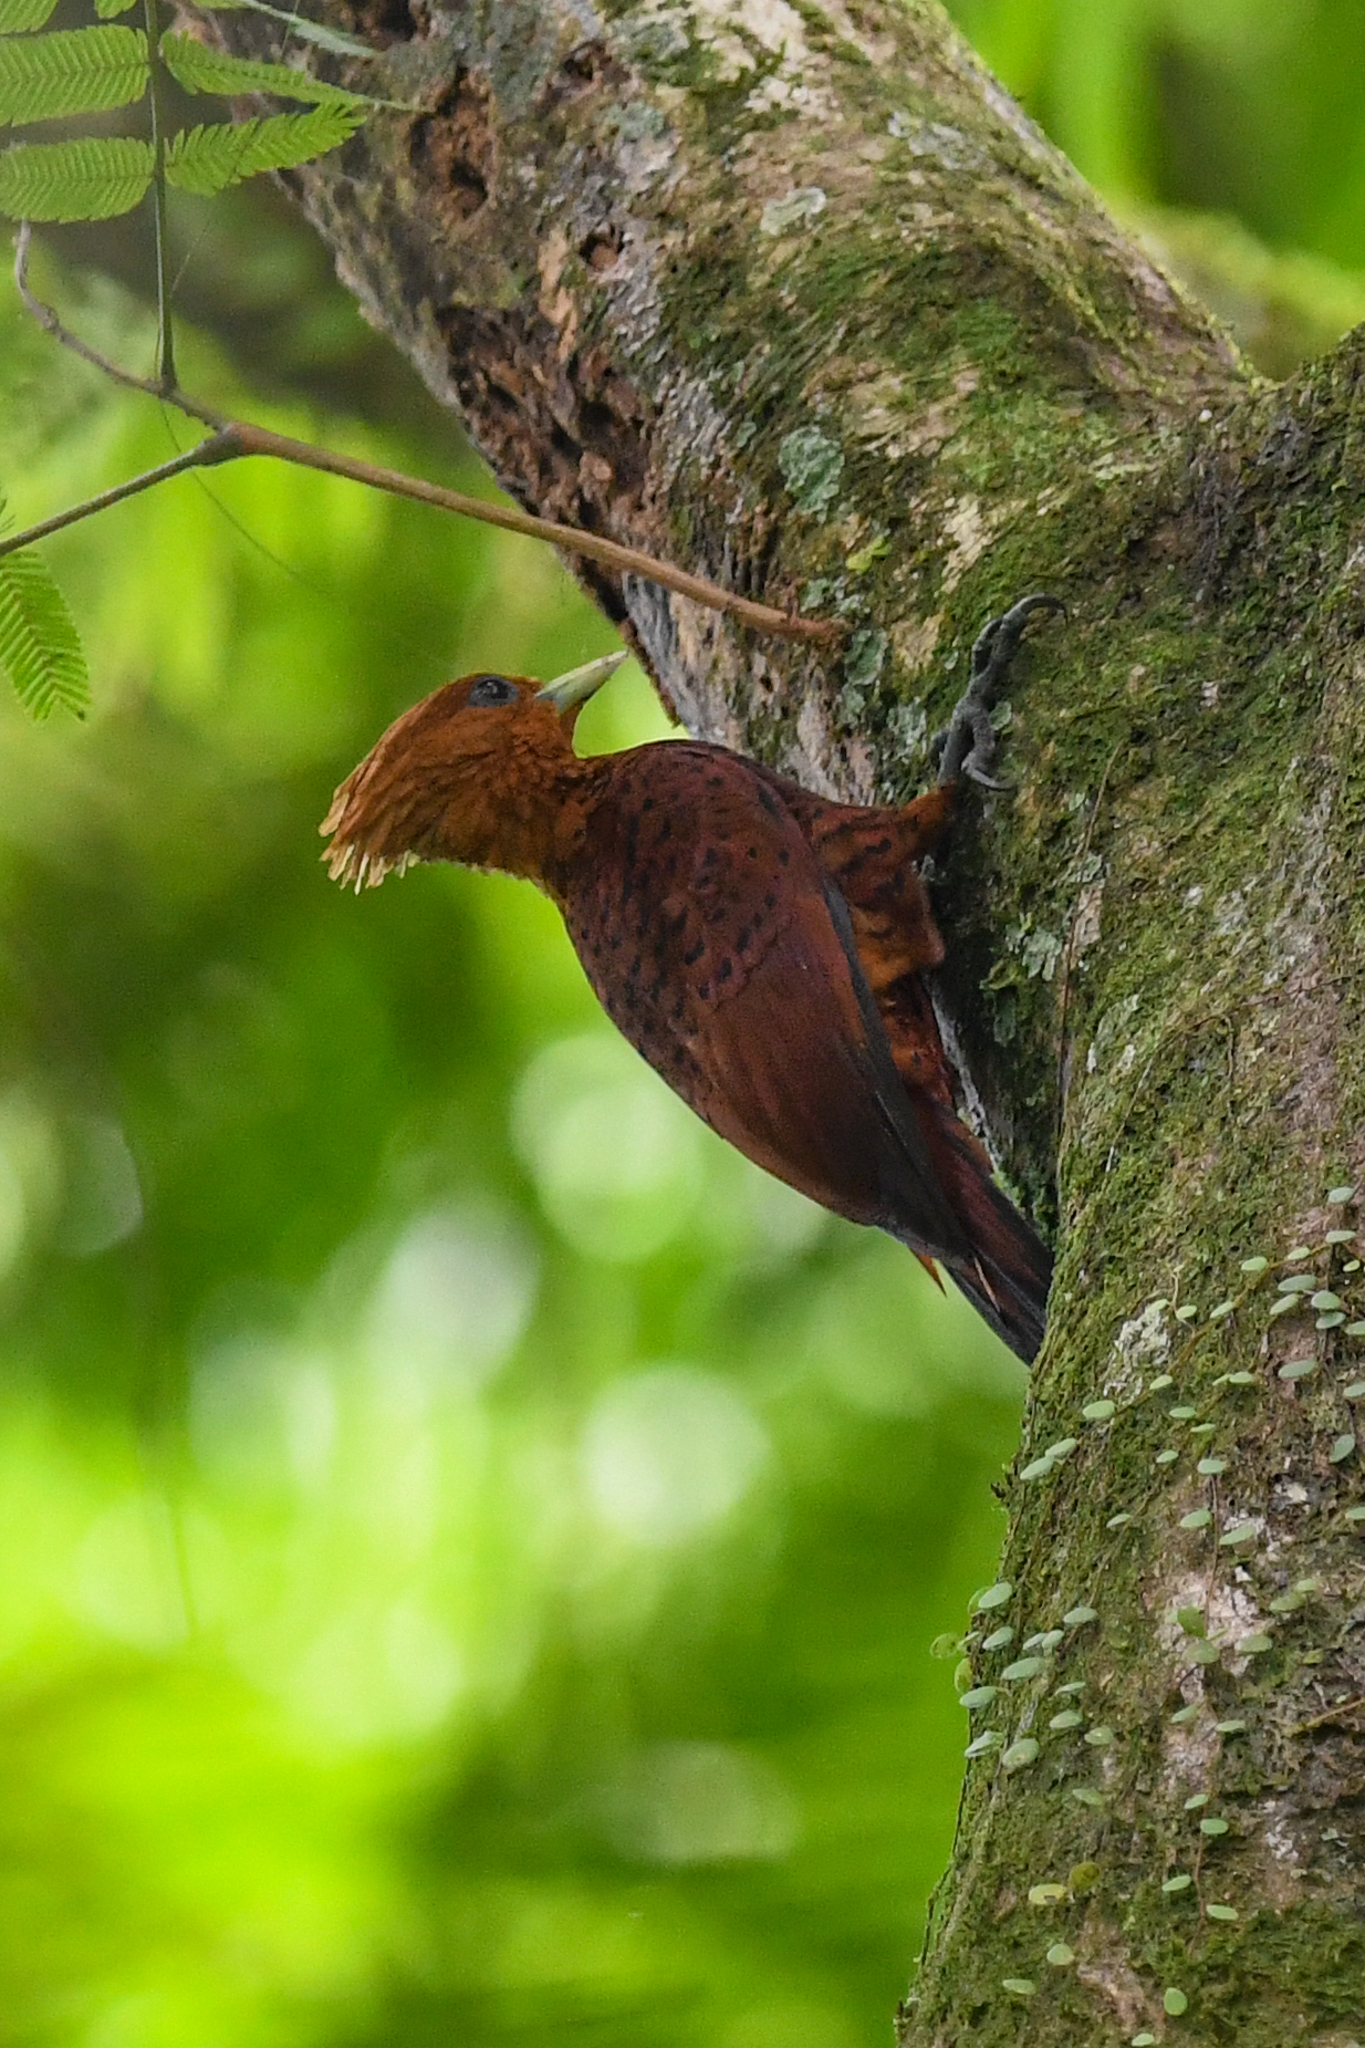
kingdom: Animalia
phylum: Chordata
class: Aves
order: Piciformes
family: Picidae
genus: Celeus
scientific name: Celeus castaneus
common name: Chestnut-colored woodpecker
